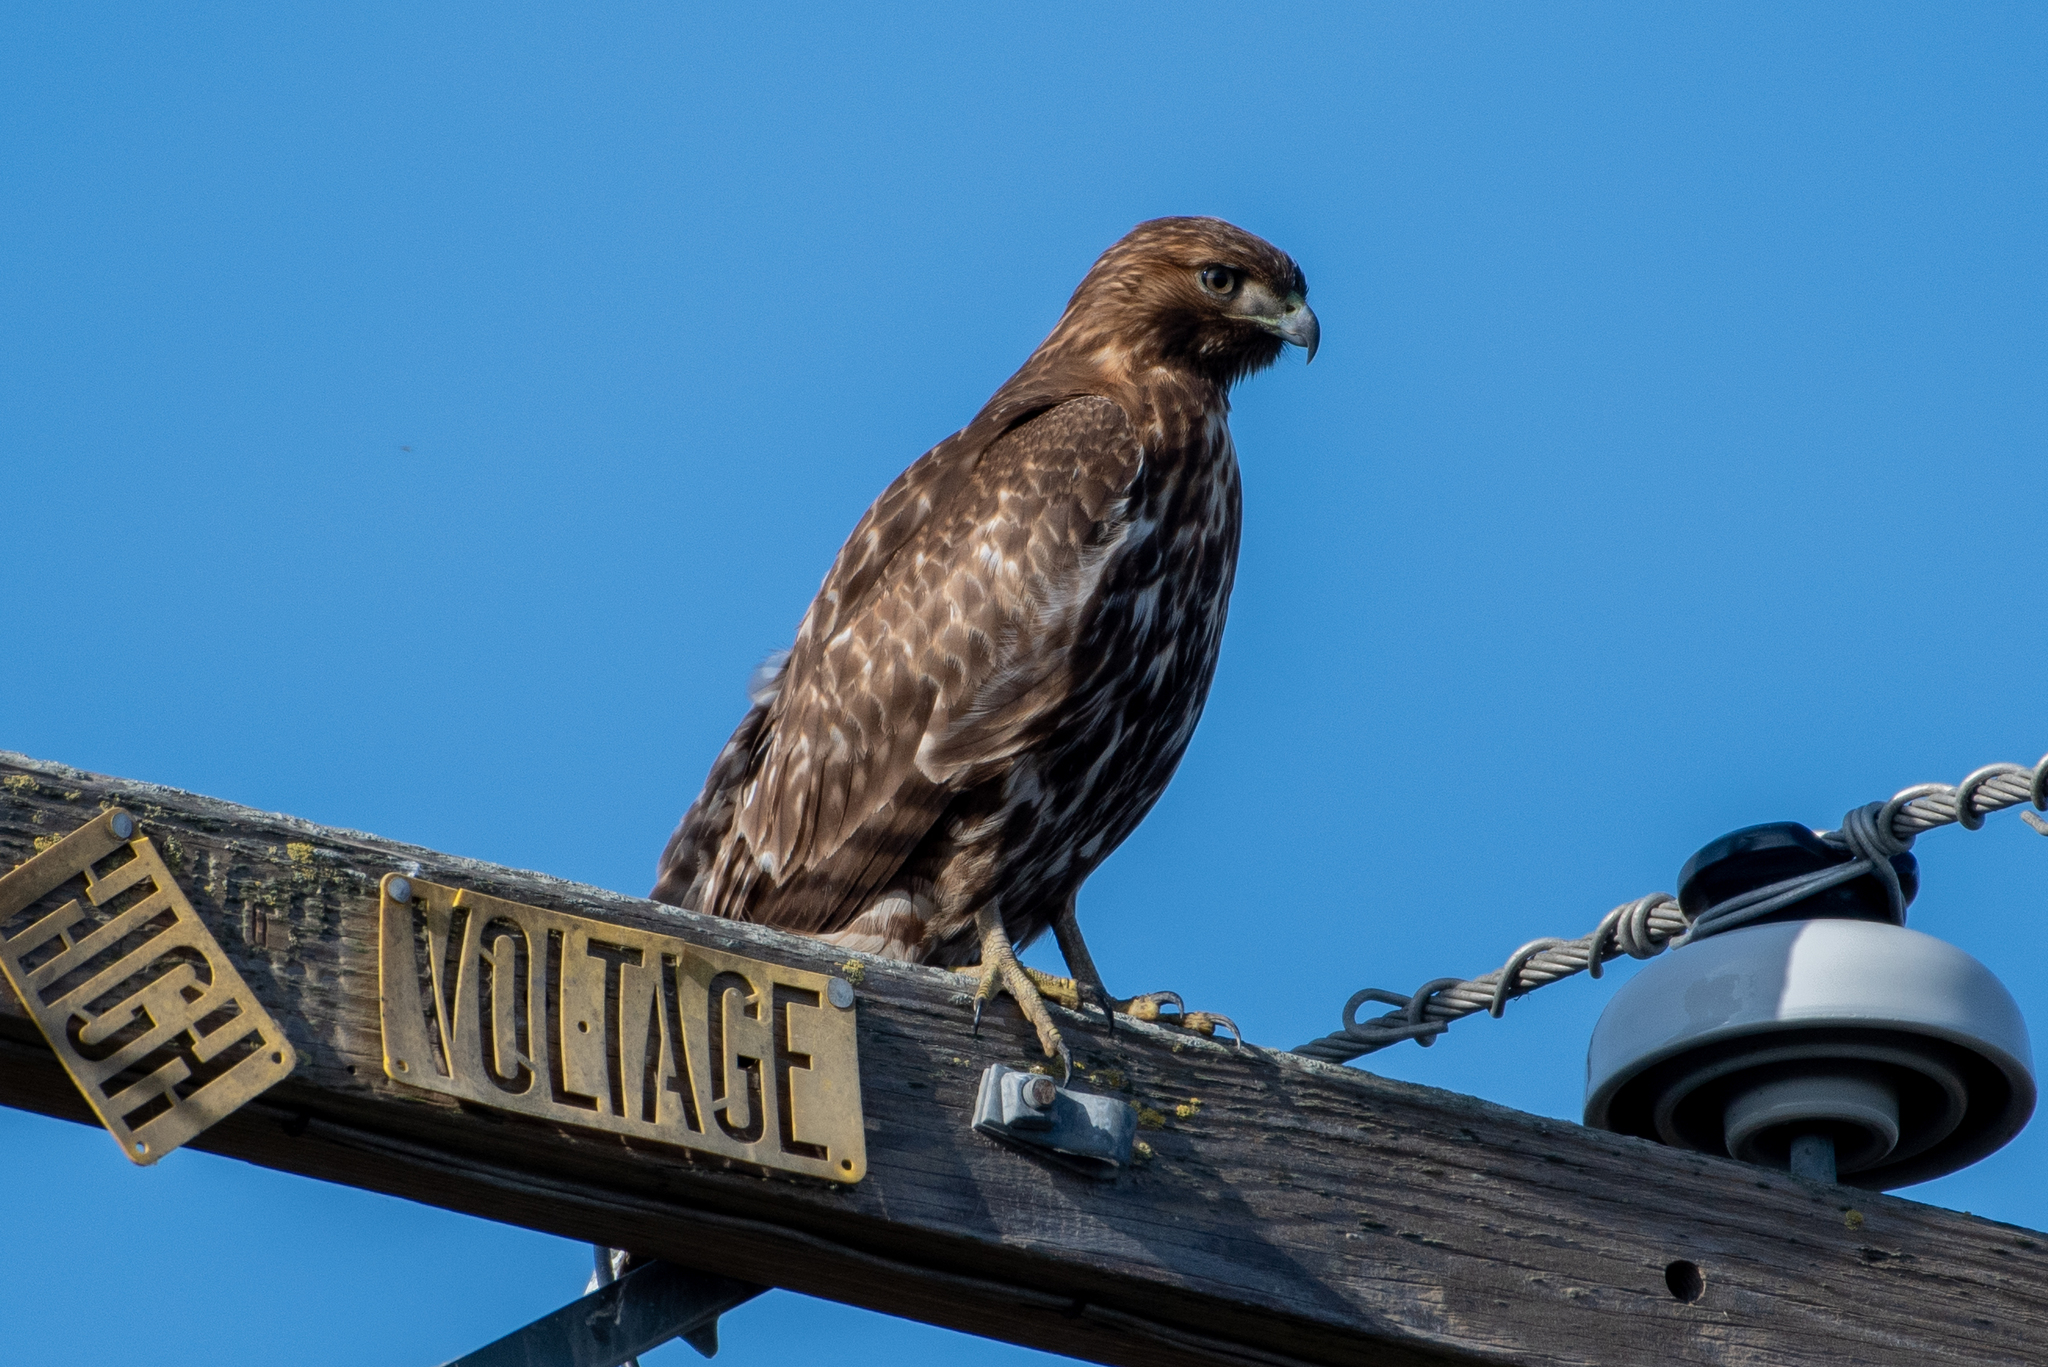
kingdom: Animalia
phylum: Chordata
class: Aves
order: Accipitriformes
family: Accipitridae
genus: Buteo
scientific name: Buteo jamaicensis
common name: Red-tailed hawk
